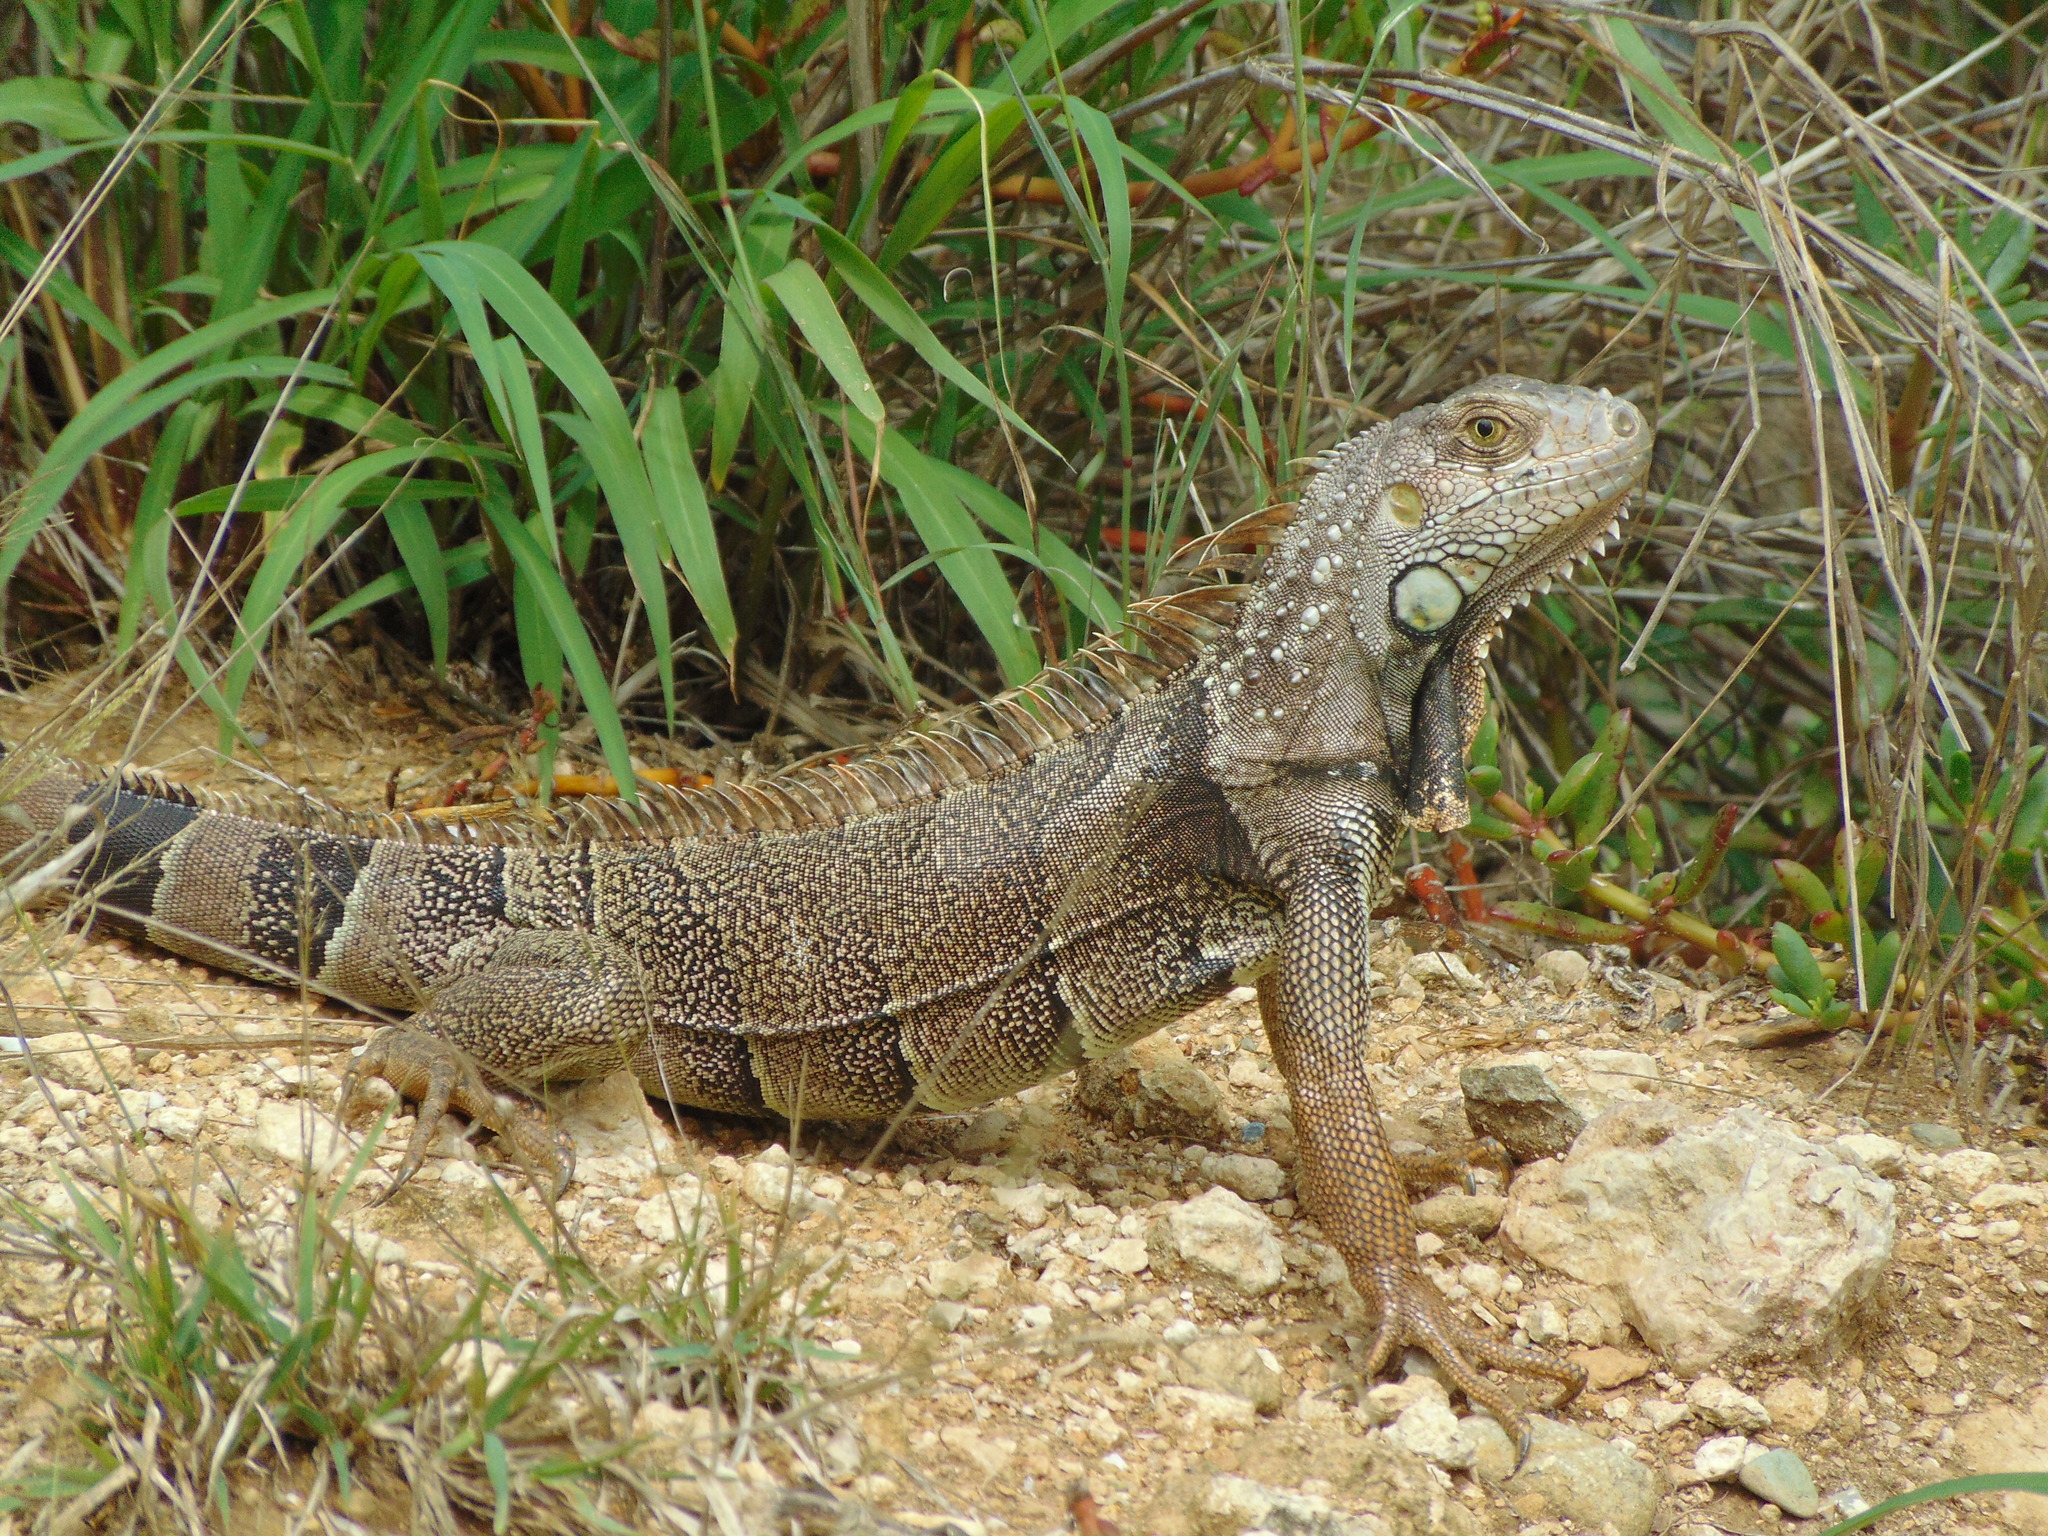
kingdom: Animalia
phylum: Chordata
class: Squamata
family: Iguanidae
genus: Iguana
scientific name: Iguana iguana
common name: Green iguana
